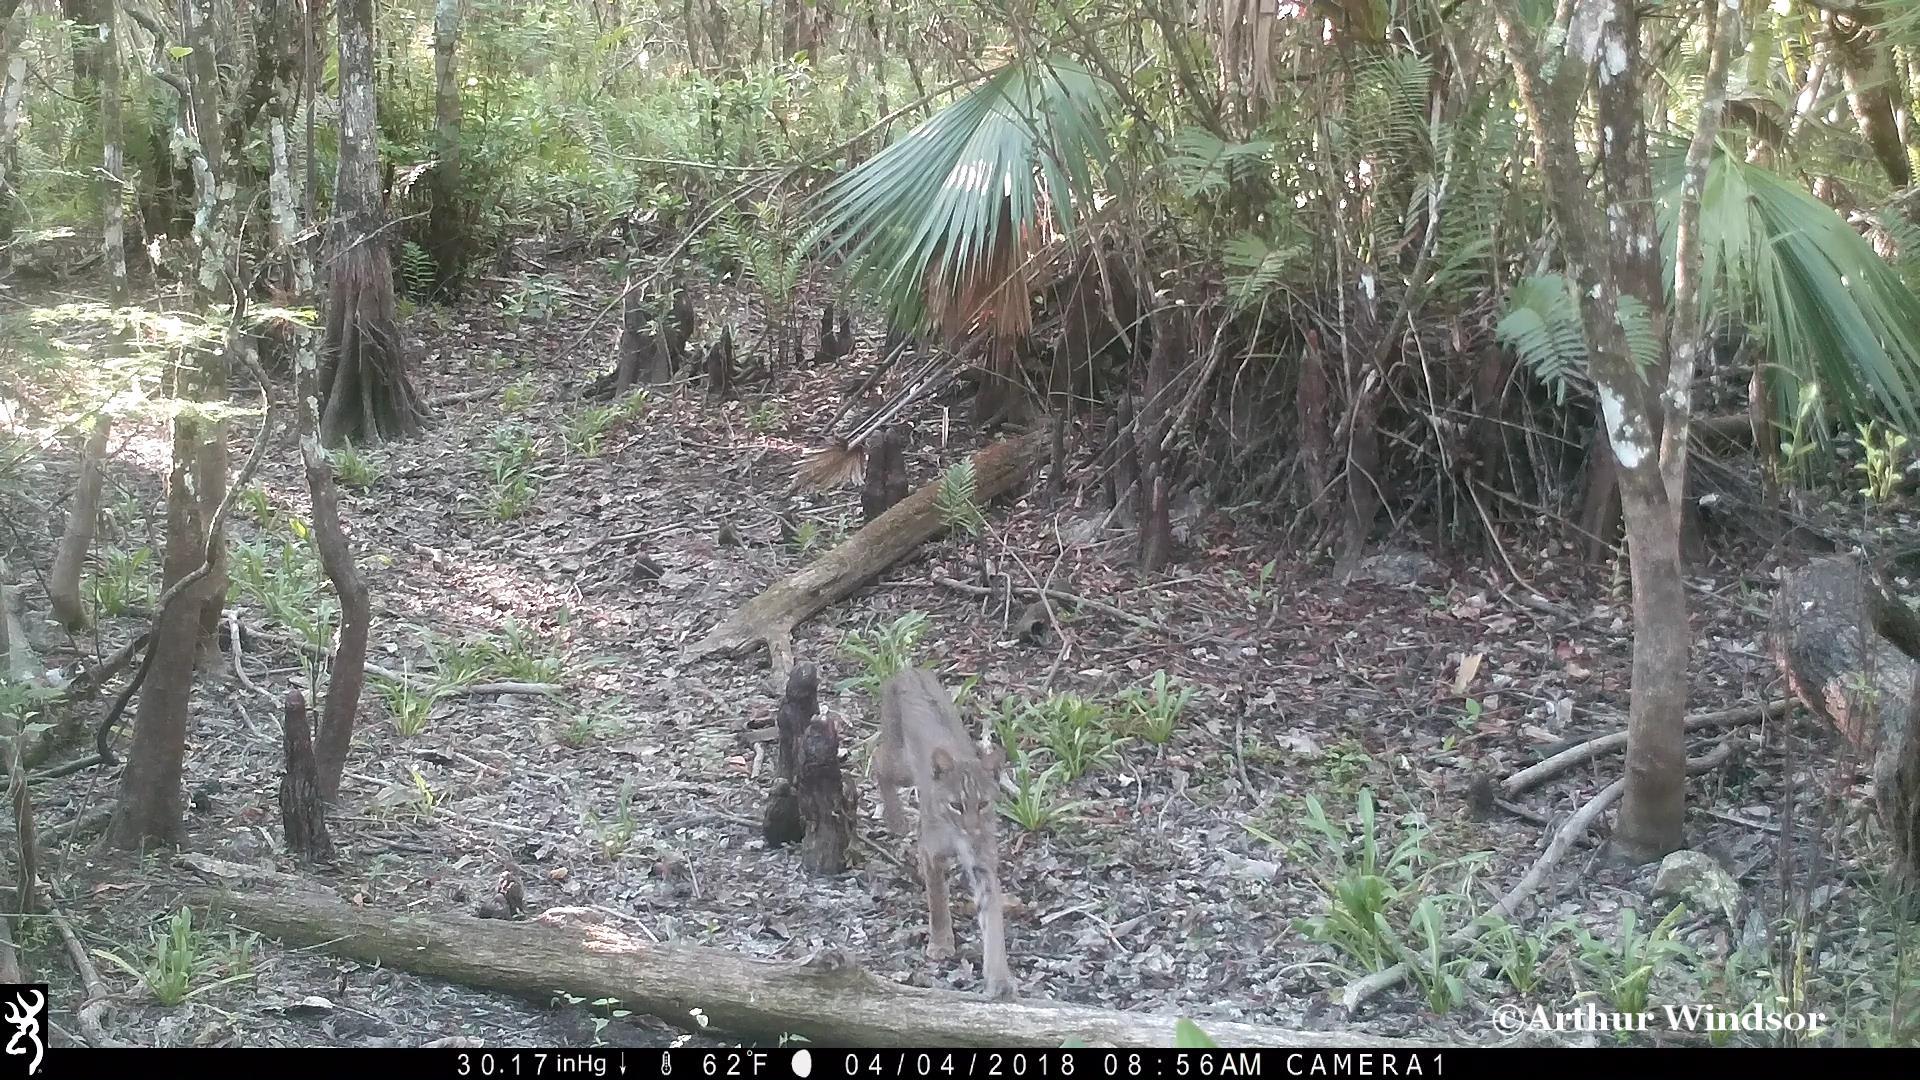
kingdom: Animalia
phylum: Chordata
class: Mammalia
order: Carnivora
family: Felidae
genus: Lynx
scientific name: Lynx rufus
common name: Bobcat
